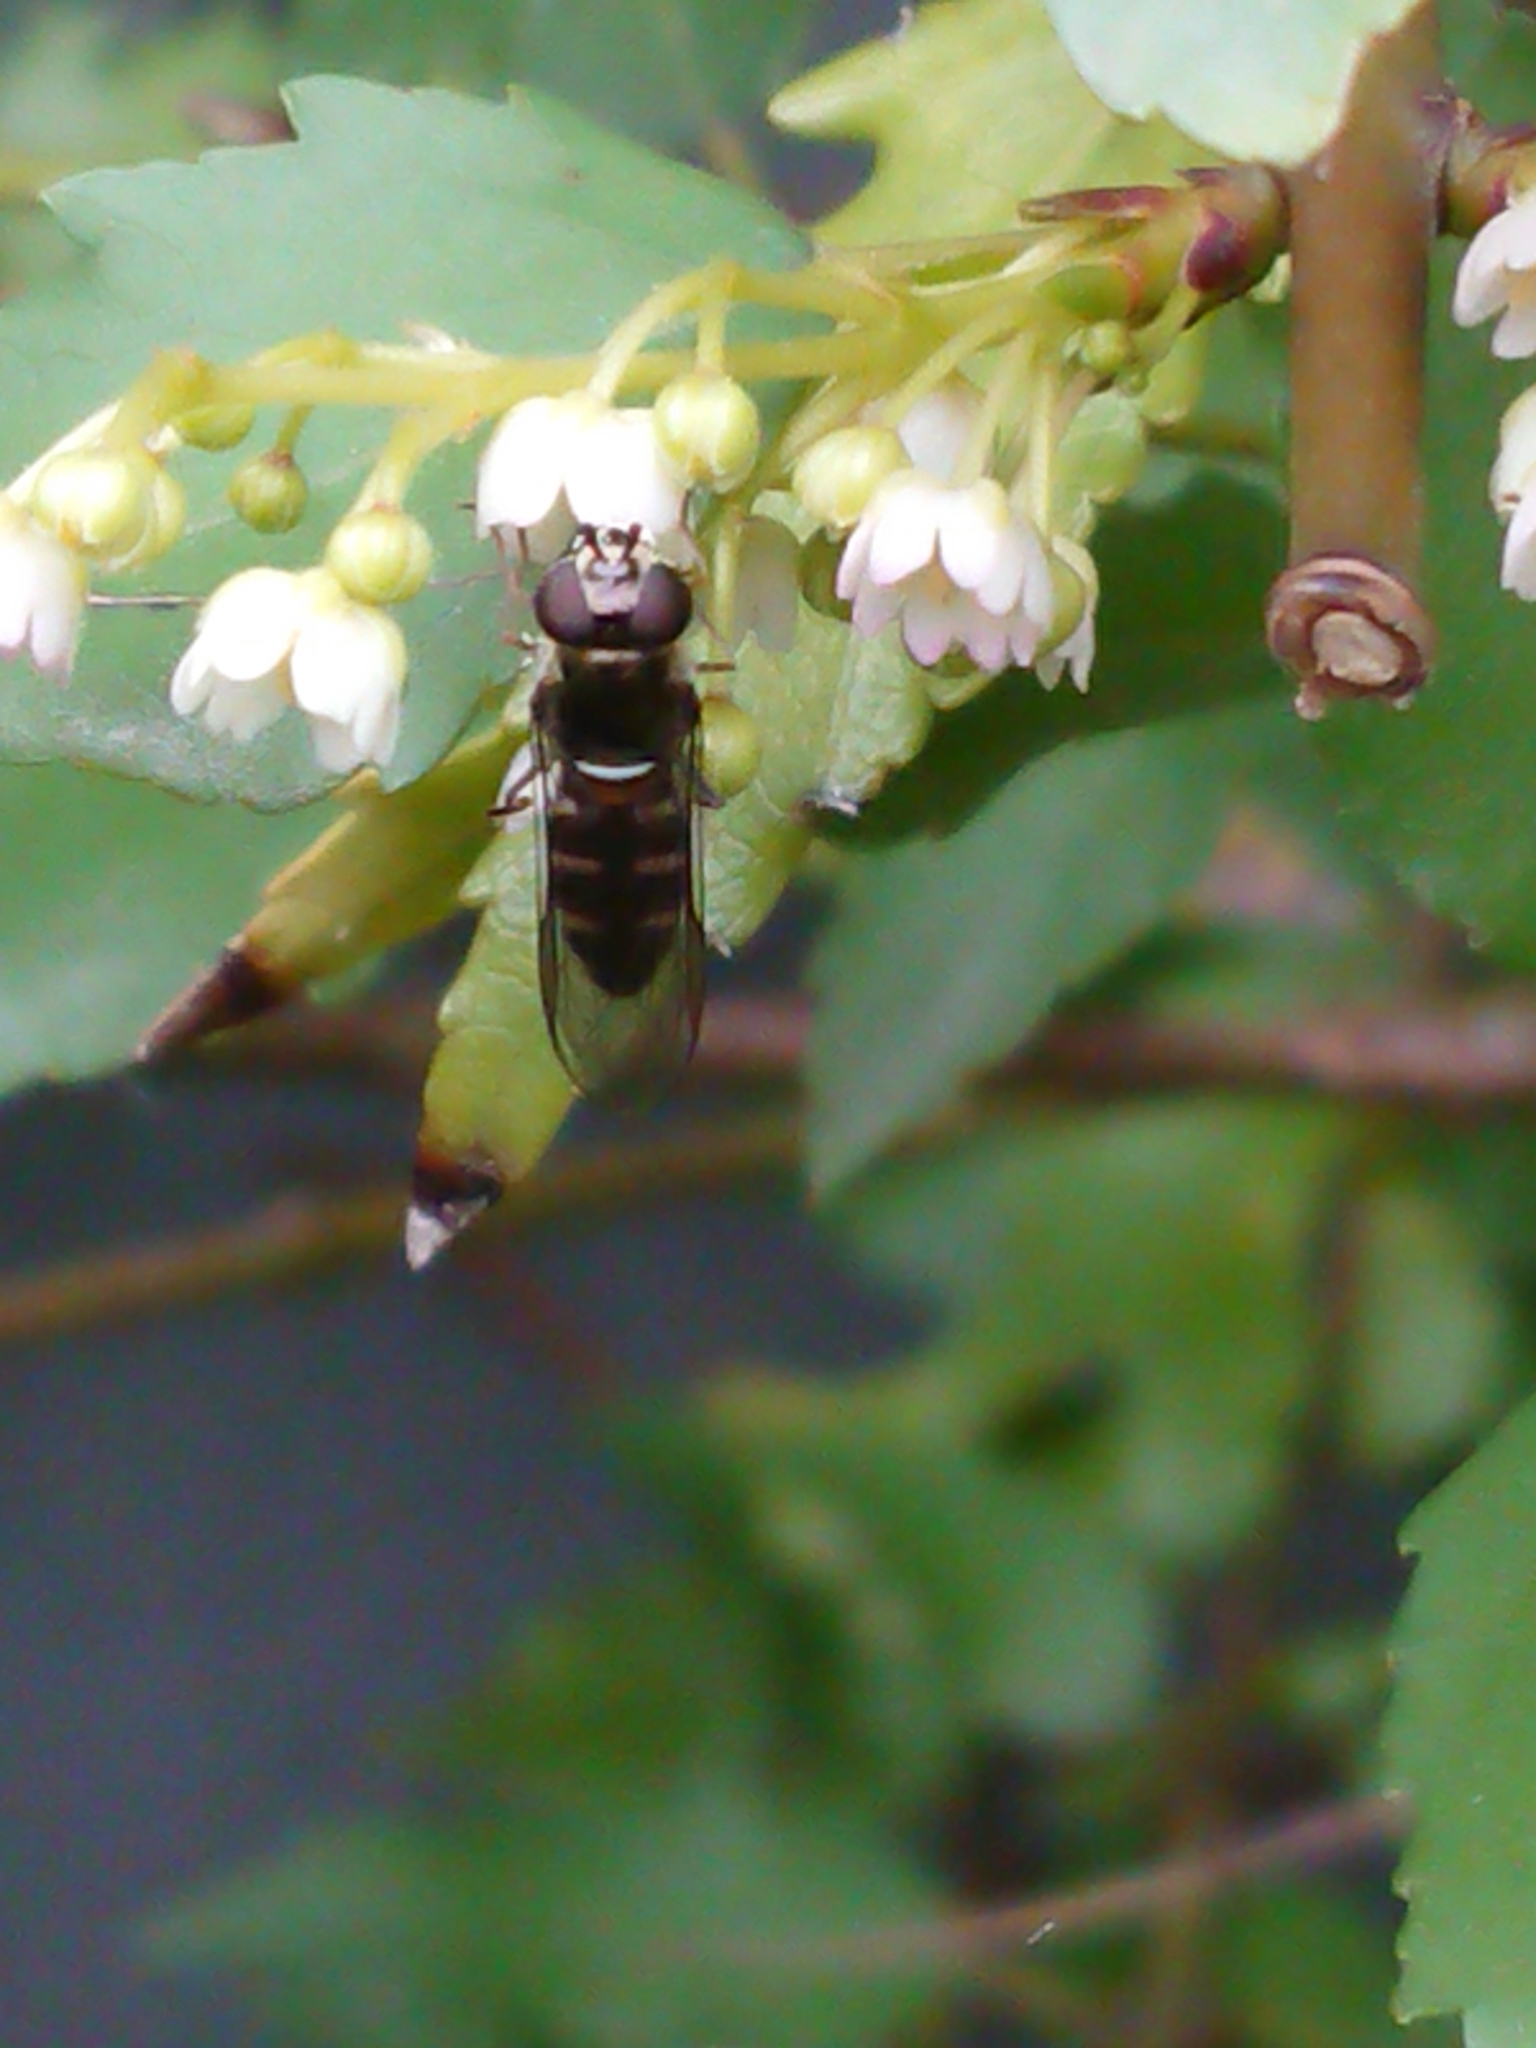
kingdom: Animalia
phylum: Arthropoda
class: Insecta
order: Diptera
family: Syrphidae
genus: Melangyna
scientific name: Melangyna novaezelandiae
